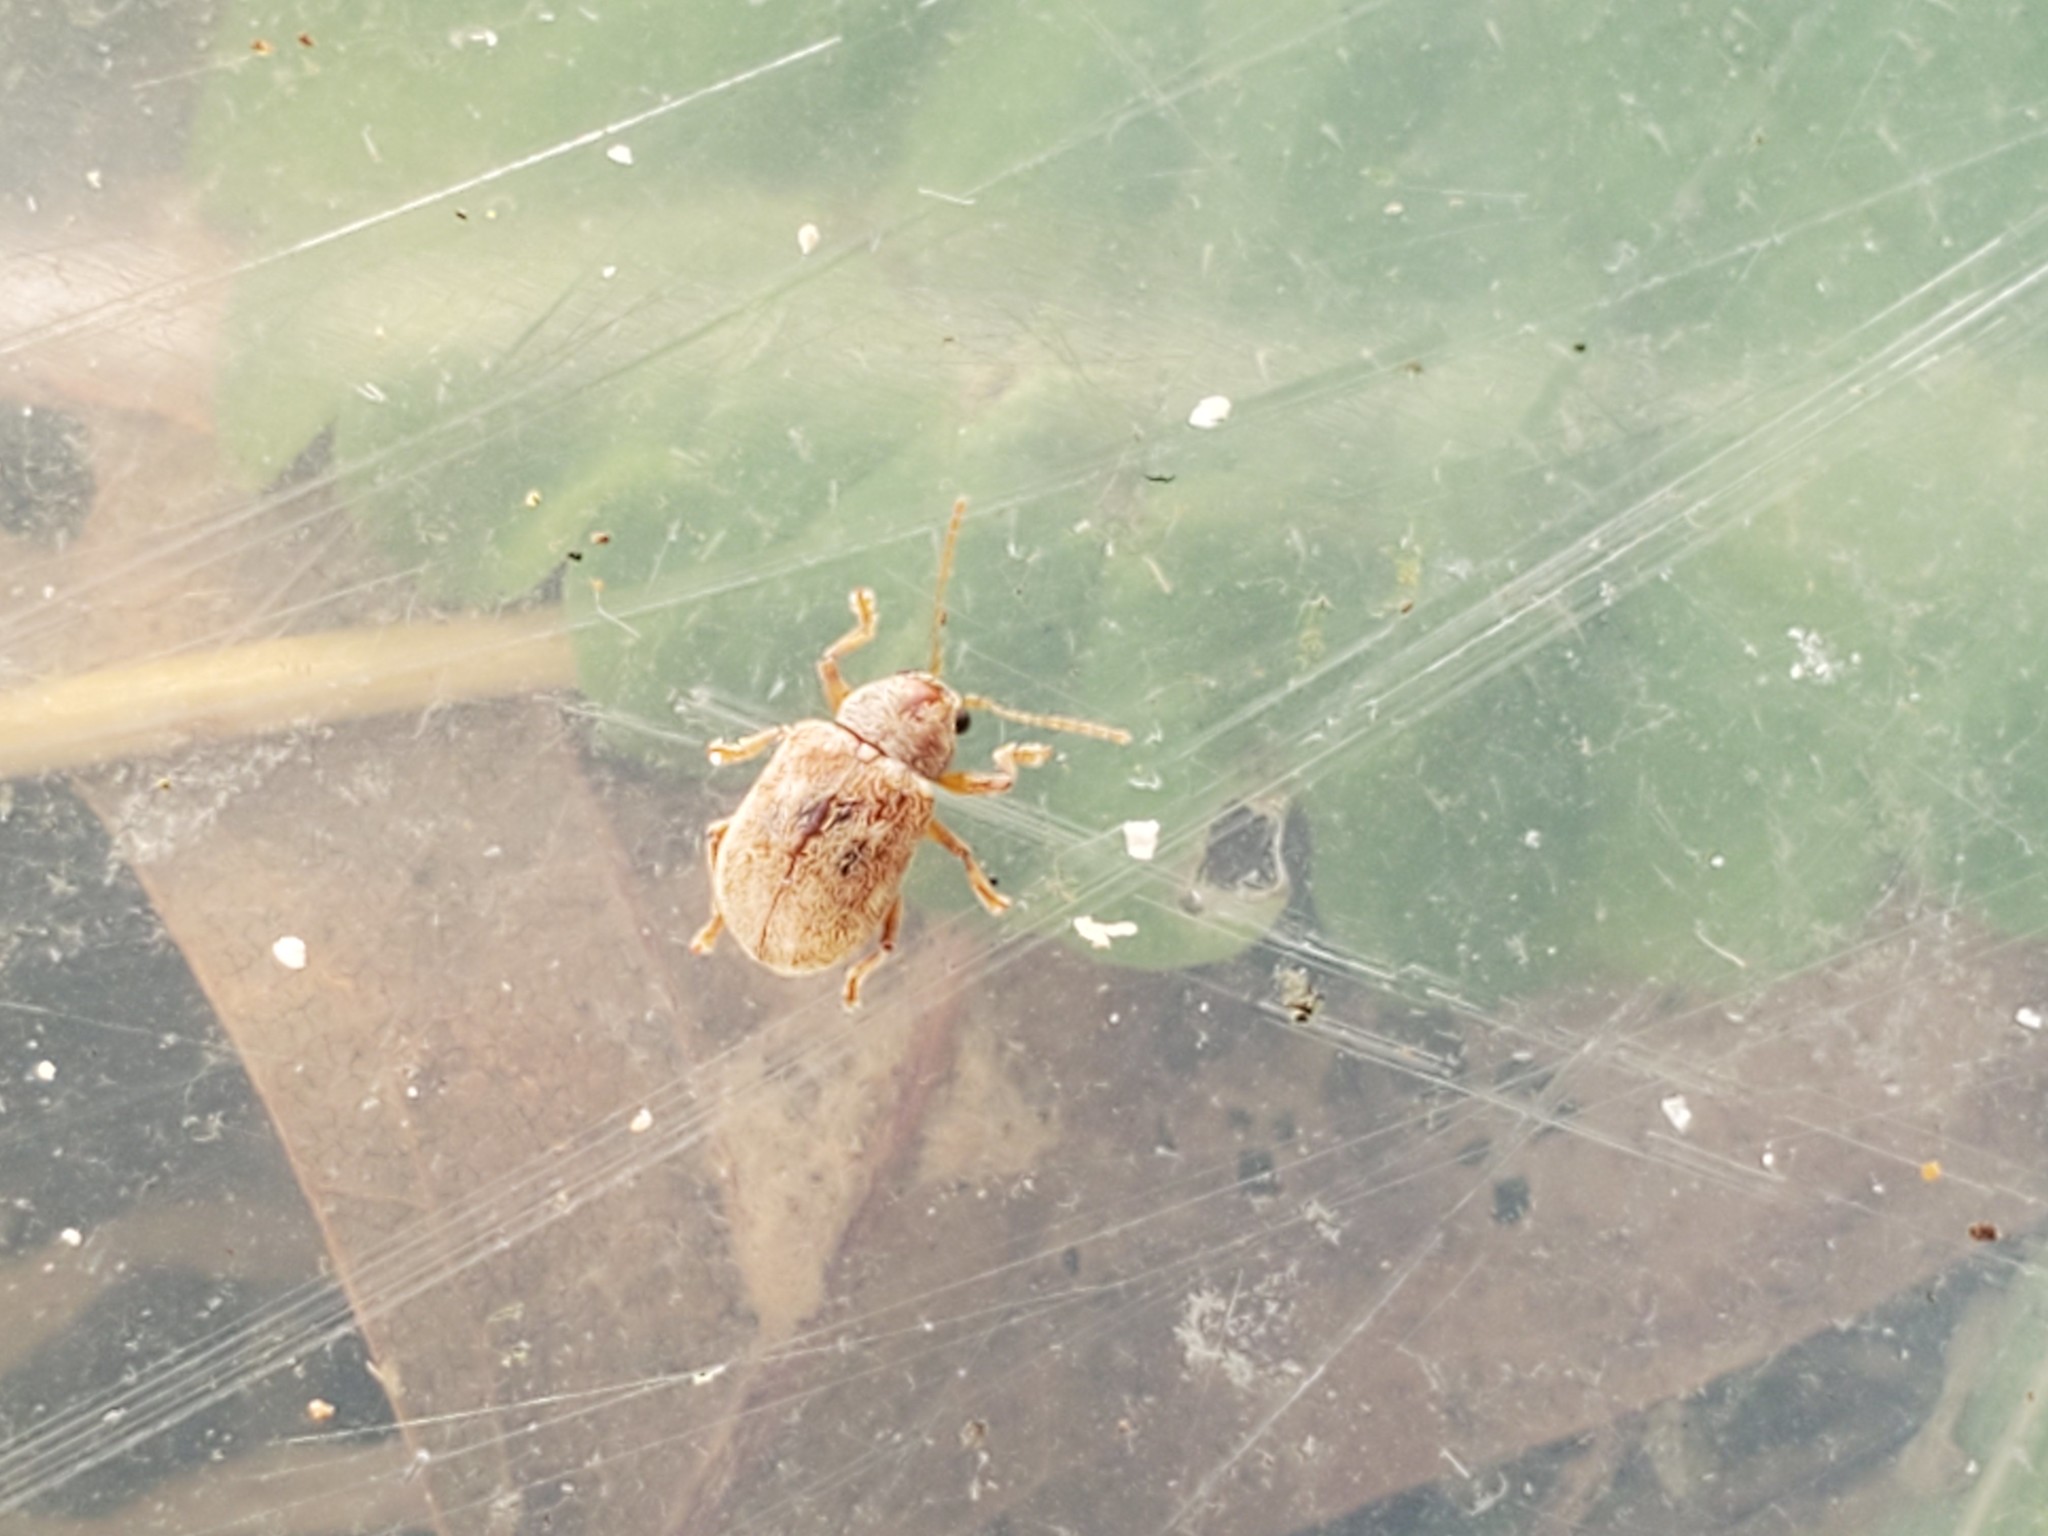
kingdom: Animalia
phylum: Arthropoda
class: Insecta
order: Coleoptera
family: Chrysomelidae
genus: Demotina
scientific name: Demotina modesta
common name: Leaf beetle
